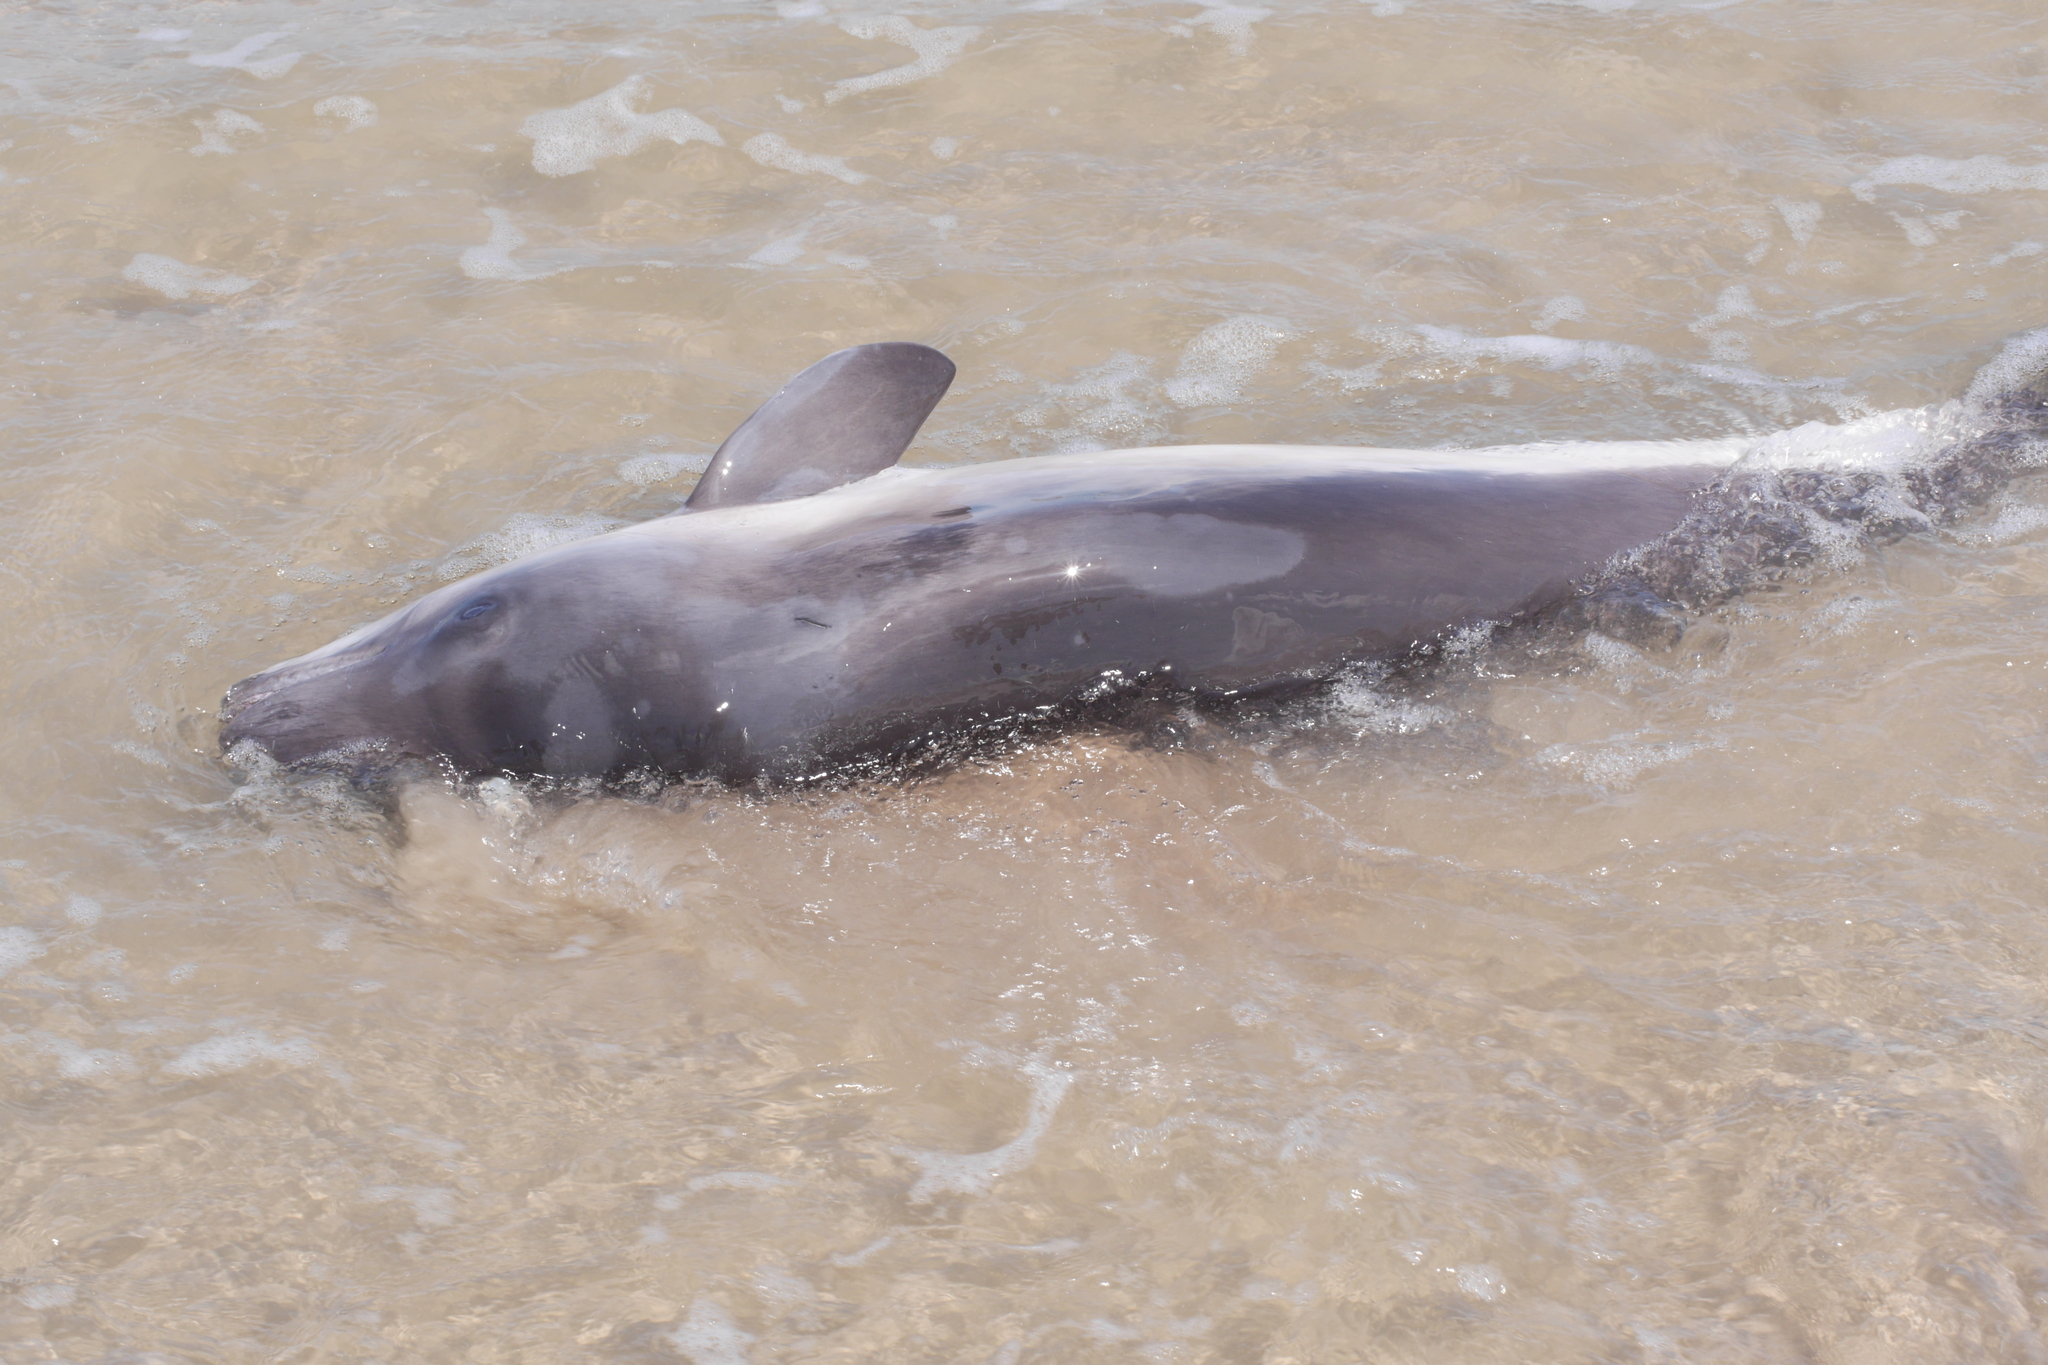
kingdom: Animalia
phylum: Chordata
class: Mammalia
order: Cetacea
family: Phocoenidae
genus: Phocoena
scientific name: Phocoena phocoena
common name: Harbor porpoise
